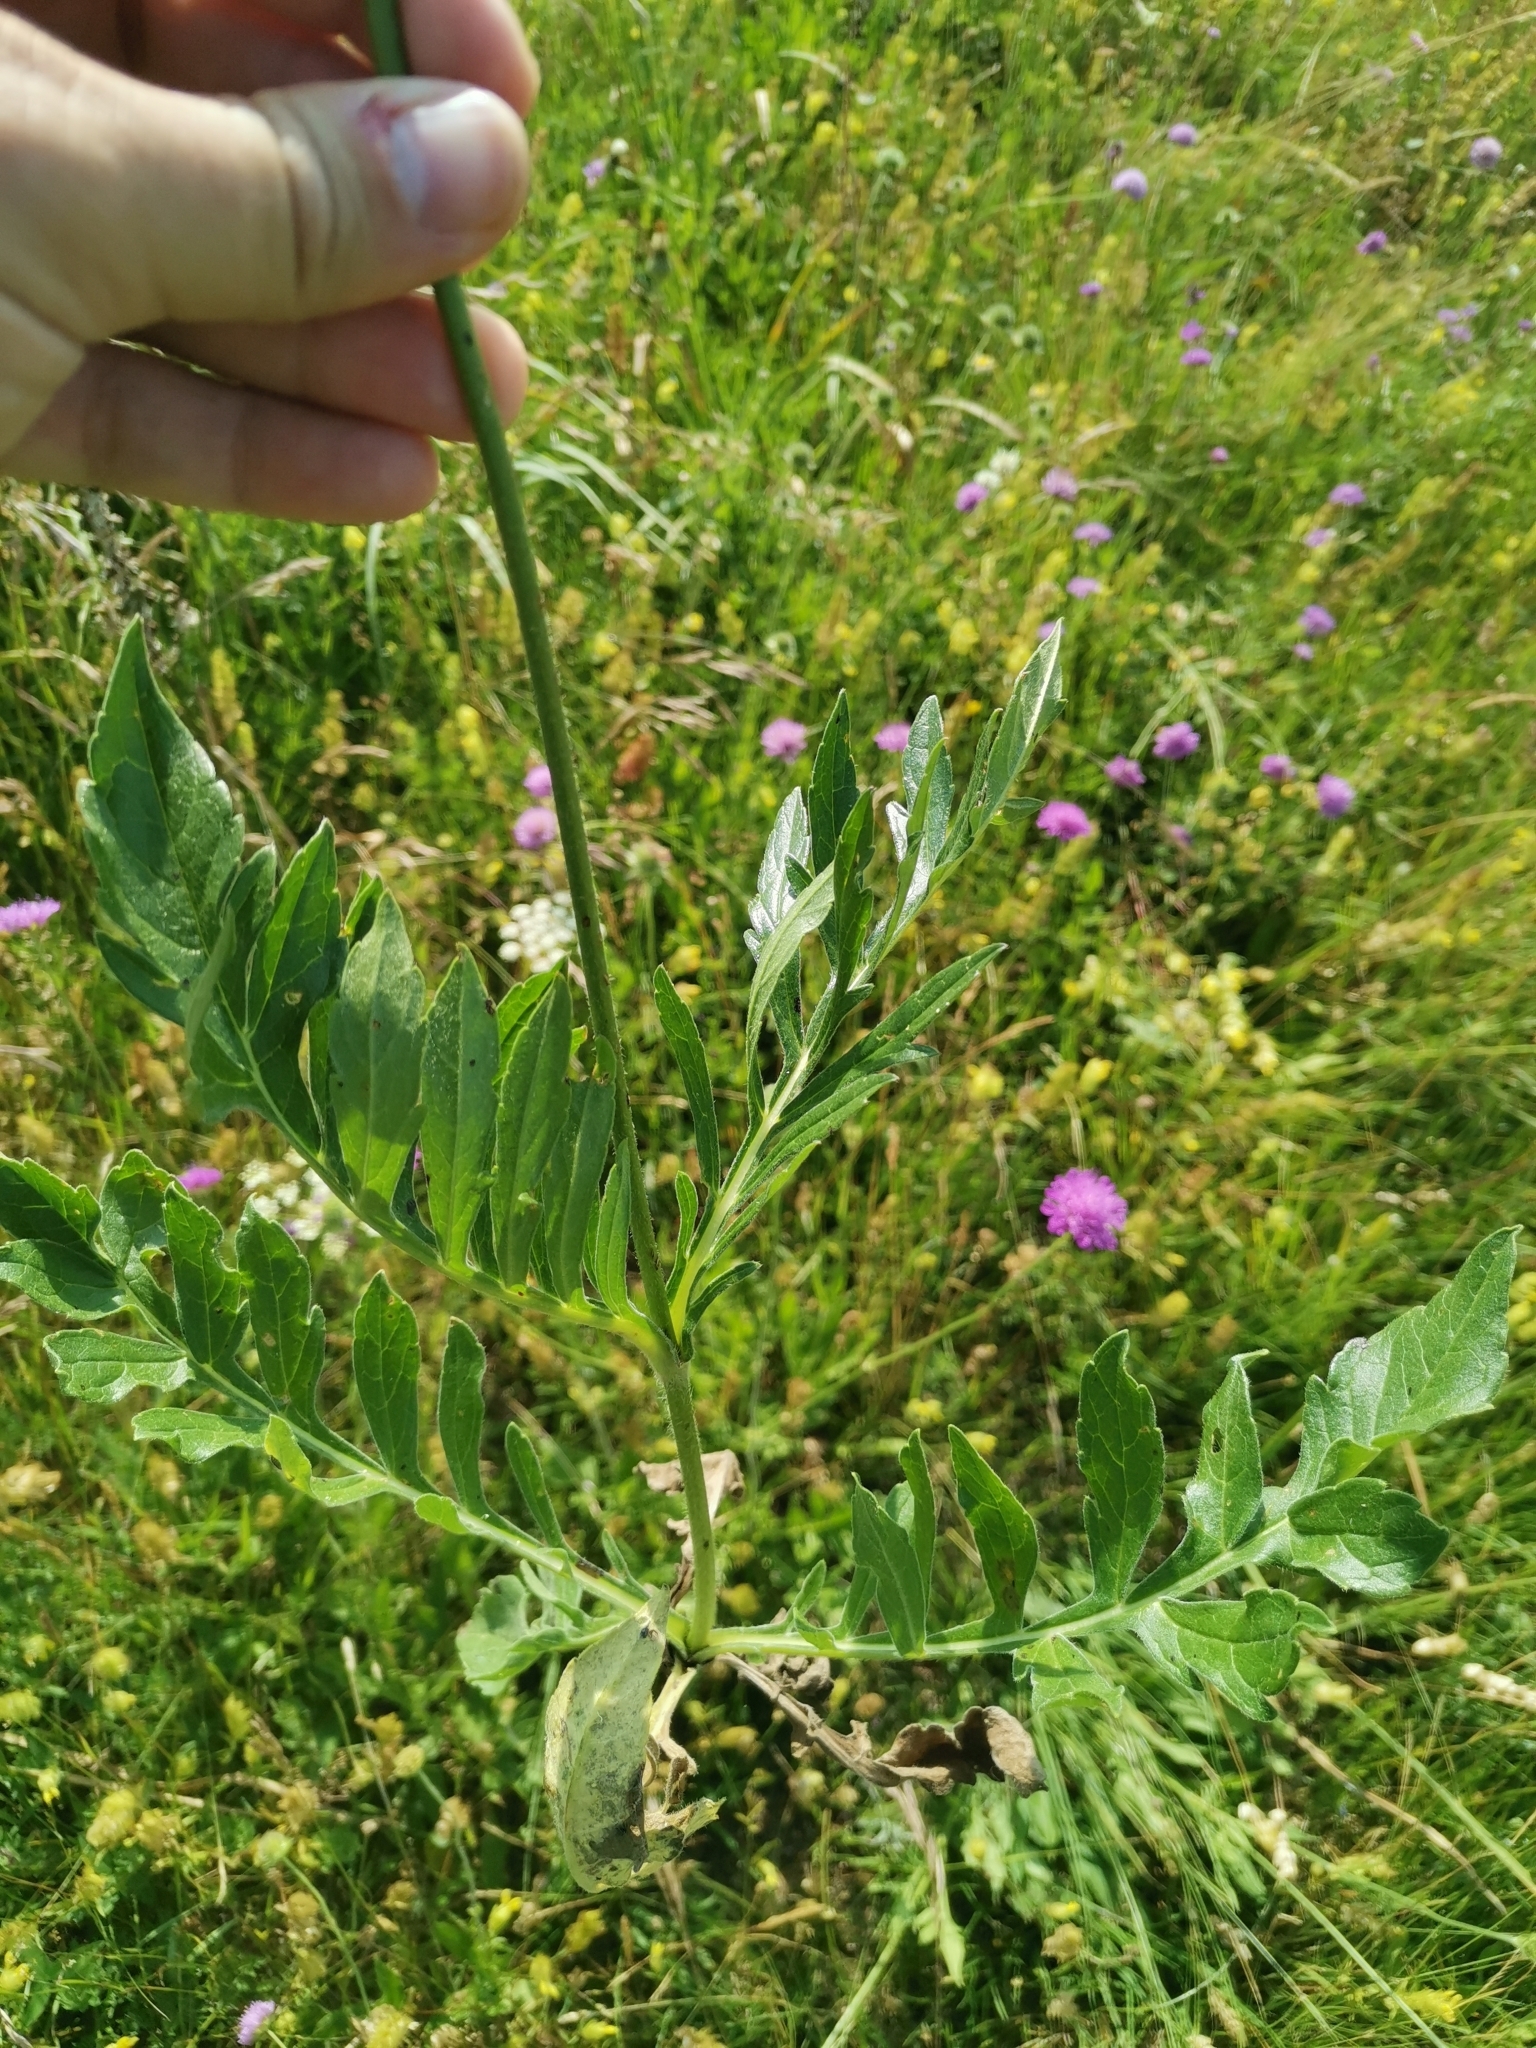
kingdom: Plantae
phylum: Tracheophyta
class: Magnoliopsida
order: Dipsacales
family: Caprifoliaceae
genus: Knautia
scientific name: Knautia fleischmannii
